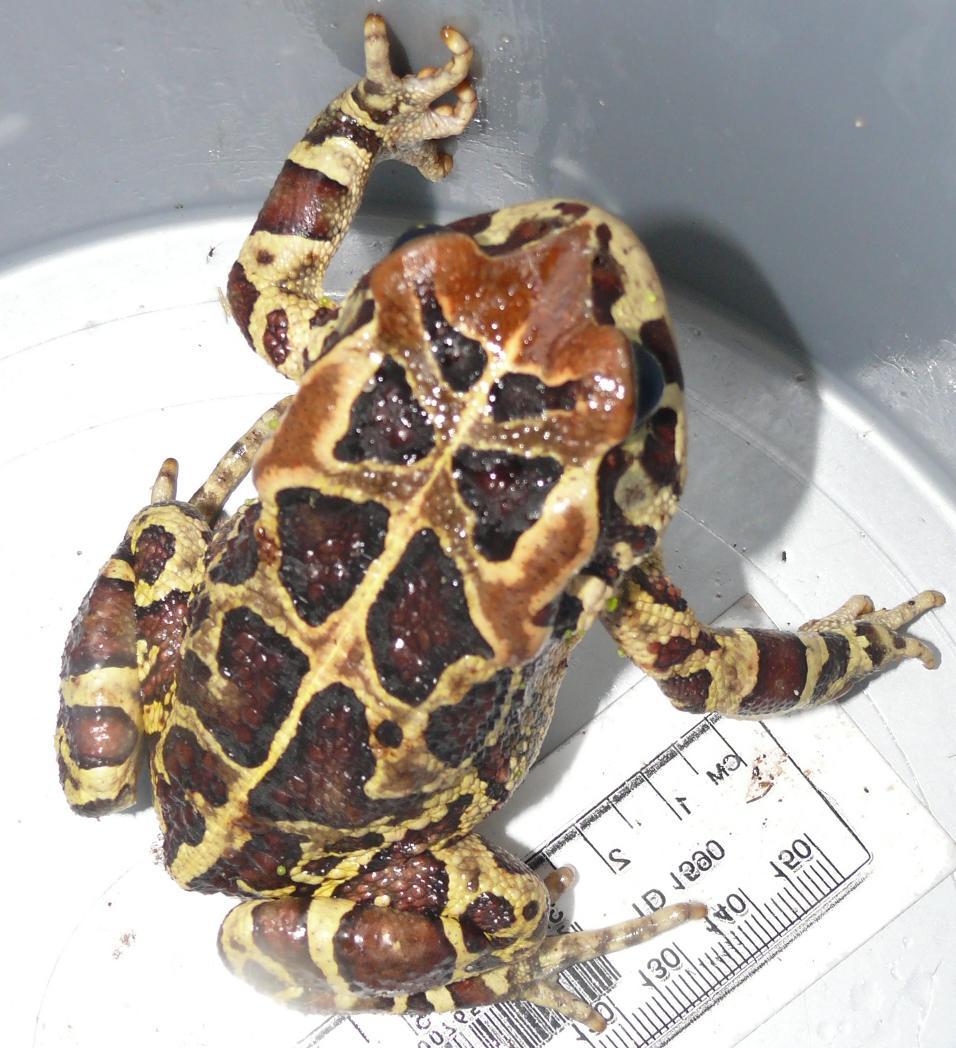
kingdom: Animalia
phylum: Chordata
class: Amphibia
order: Anura
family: Bufonidae
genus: Sclerophrys
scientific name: Sclerophrys pantherina
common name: Panther toad
